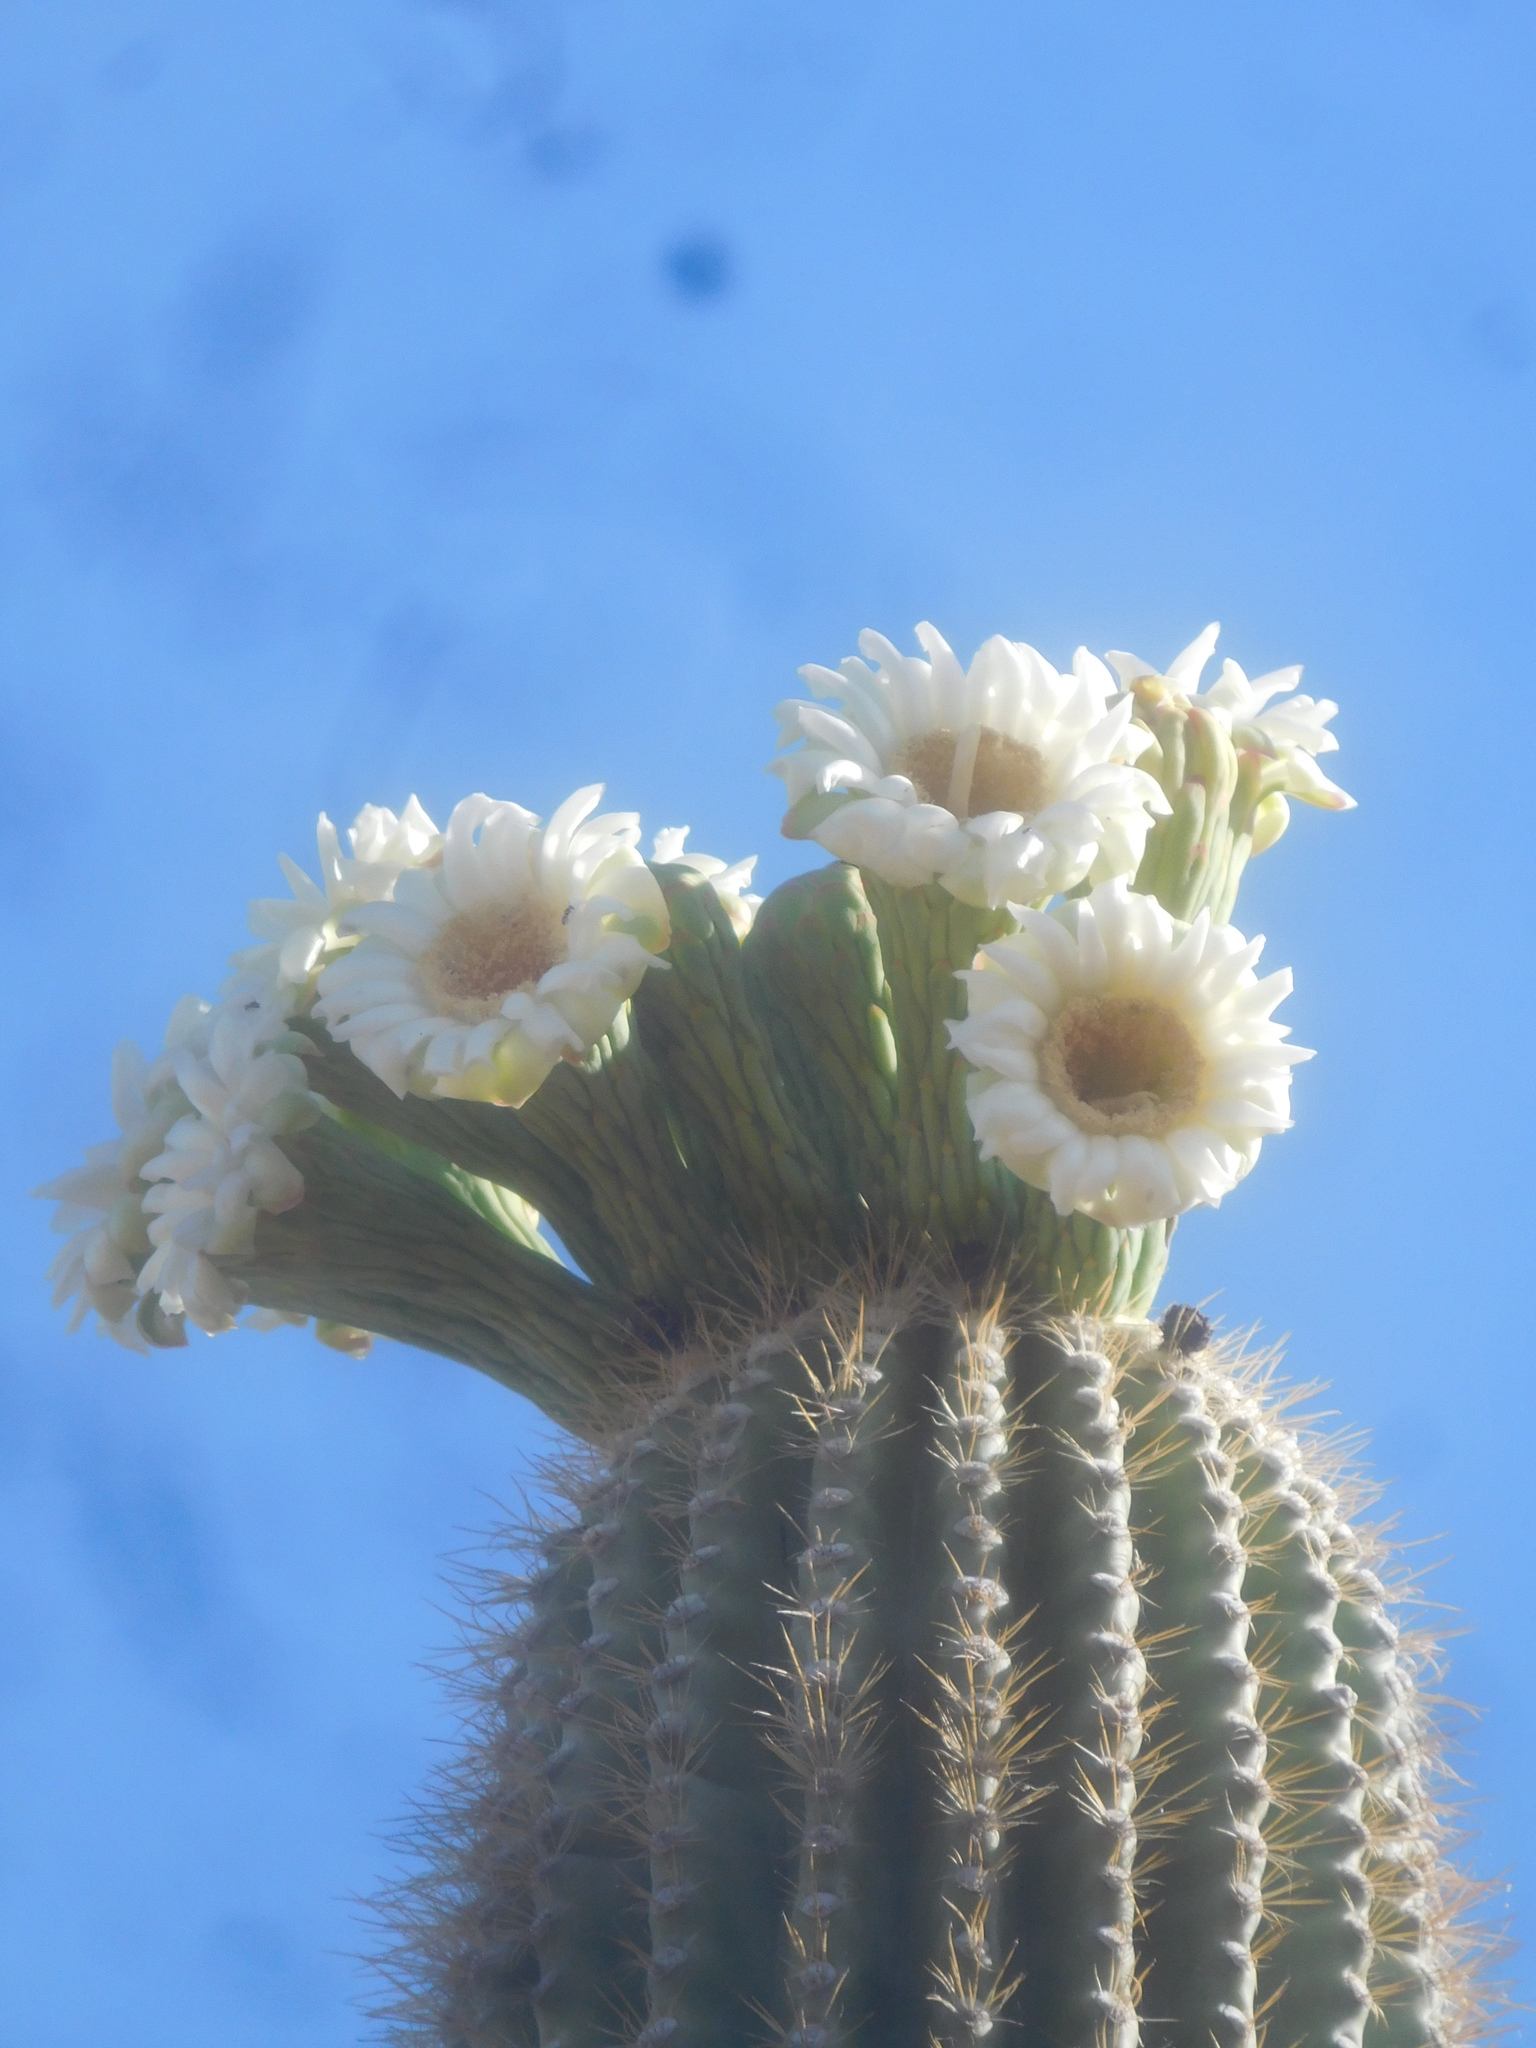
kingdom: Plantae
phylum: Tracheophyta
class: Magnoliopsida
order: Caryophyllales
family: Cactaceae
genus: Carnegiea
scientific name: Carnegiea gigantea
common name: Saguaro
